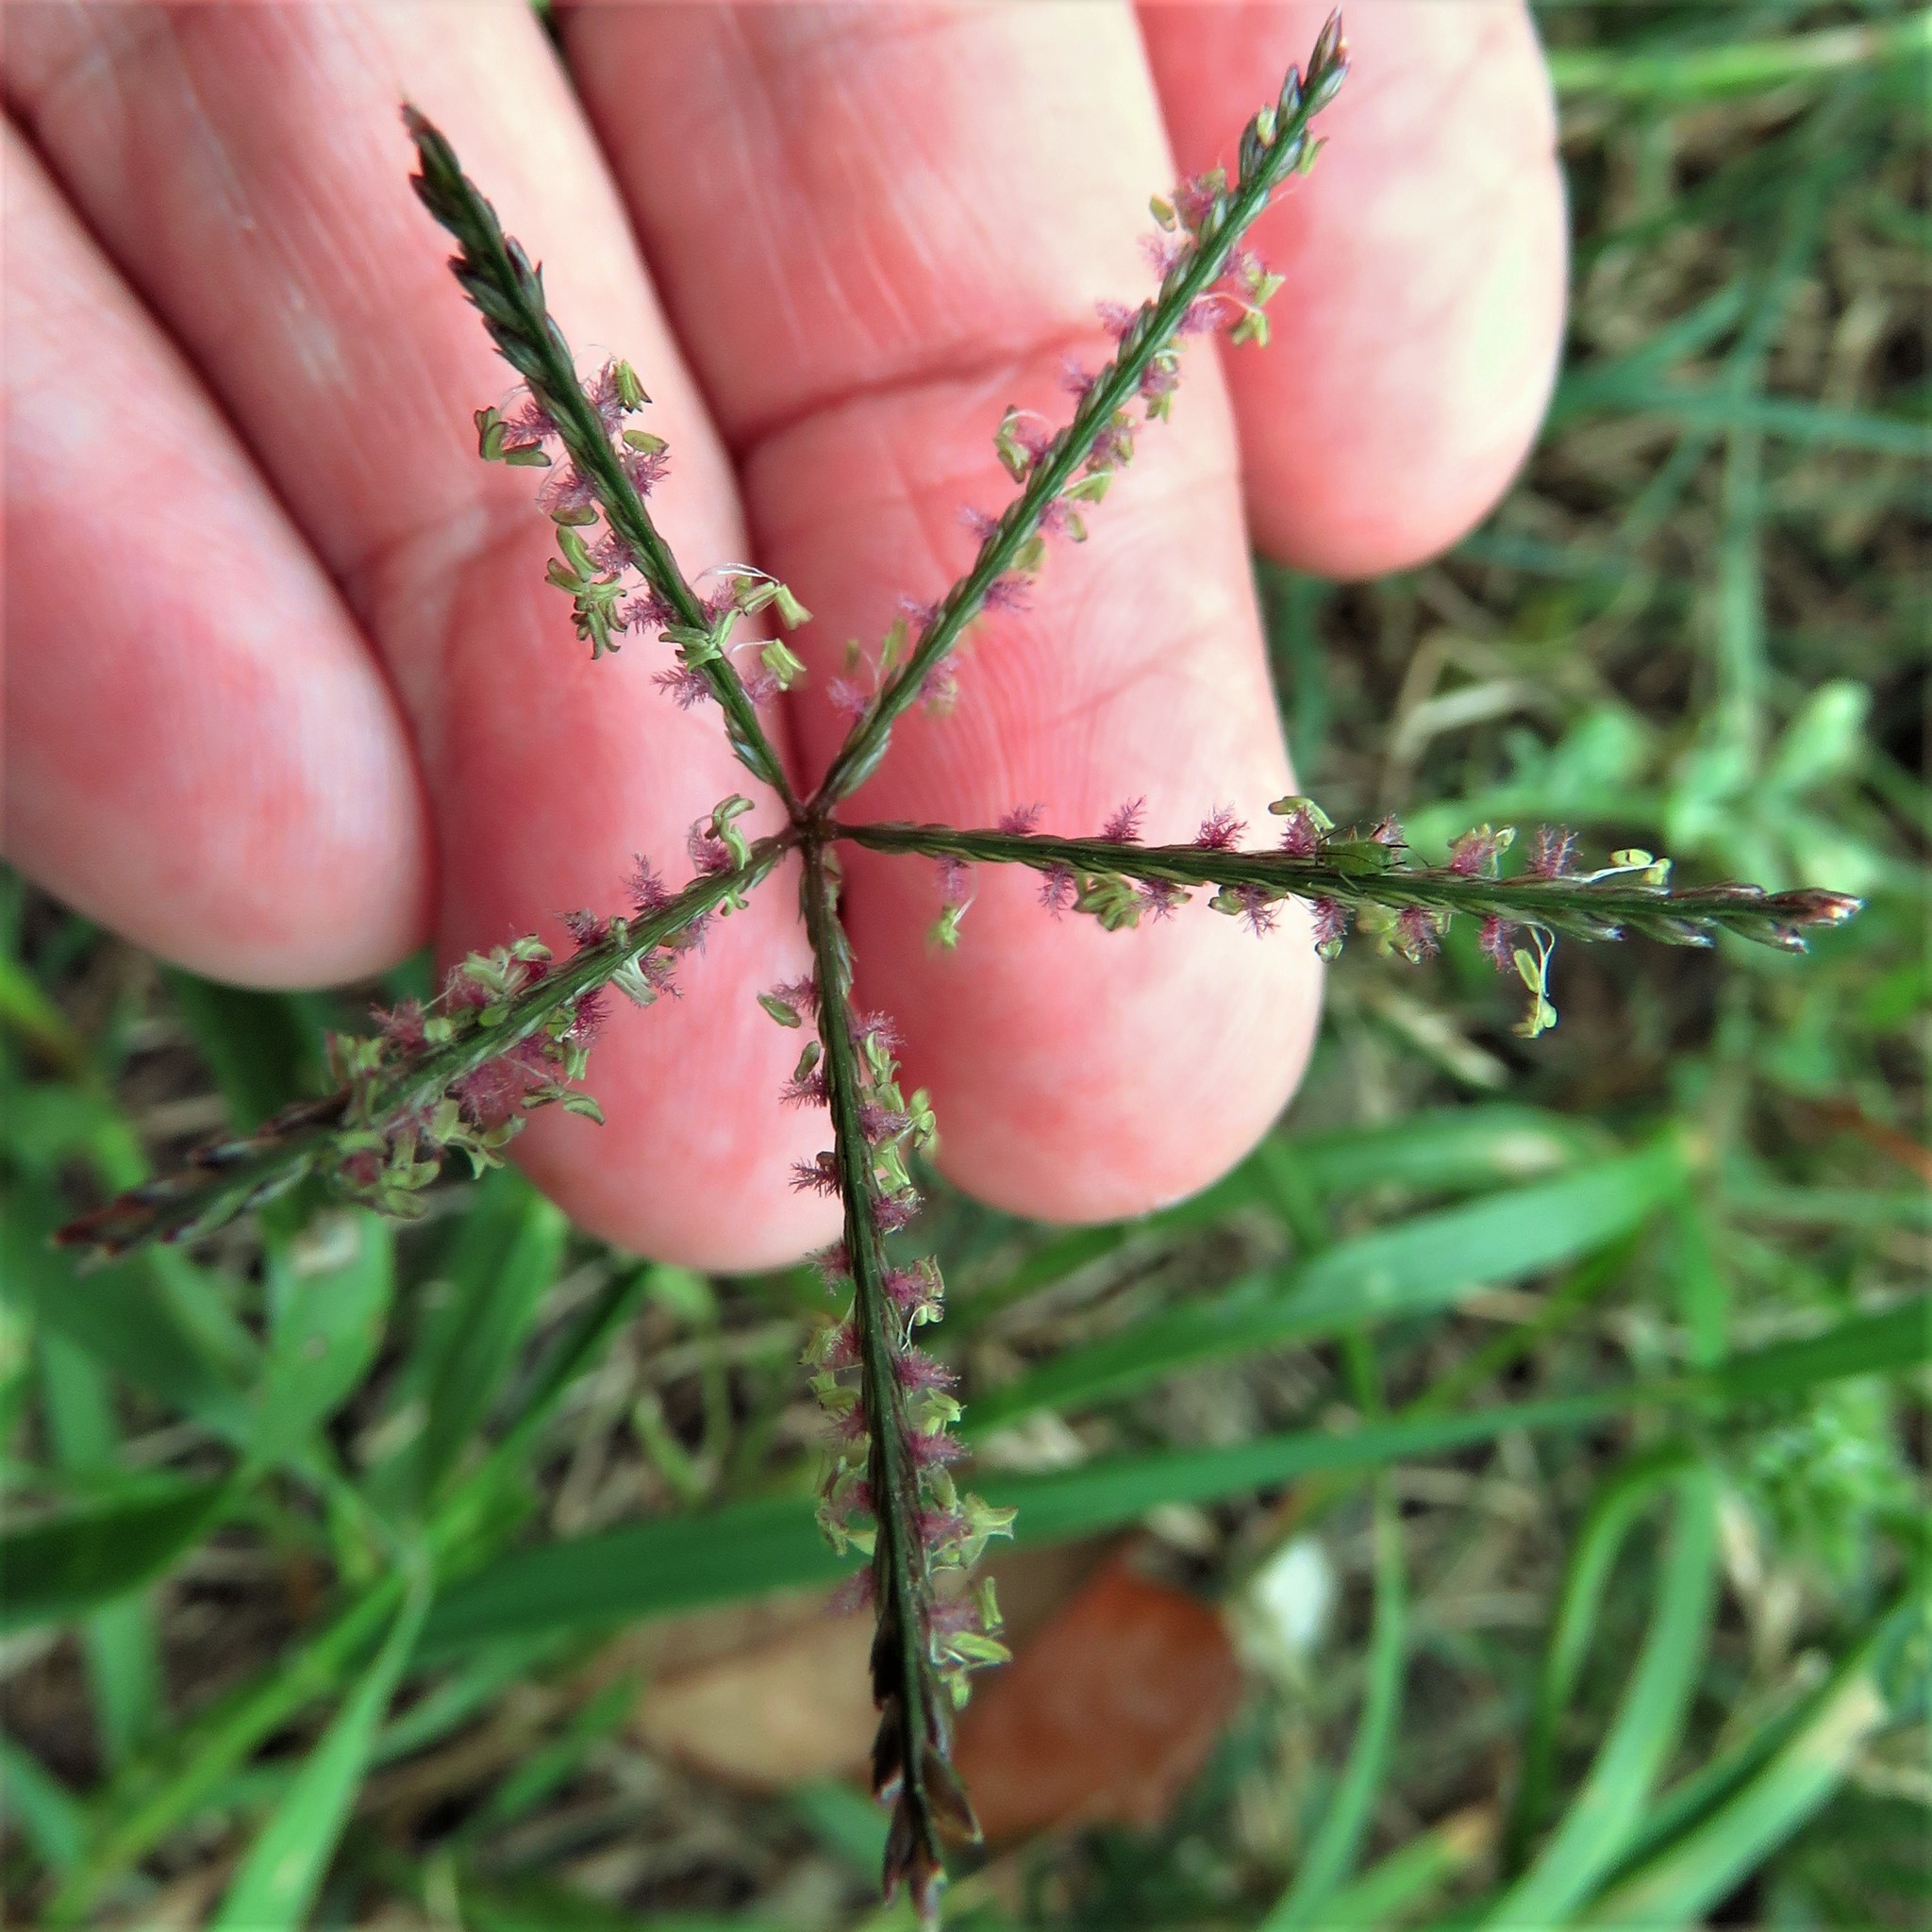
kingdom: Plantae
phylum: Tracheophyta
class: Liliopsida
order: Poales
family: Poaceae
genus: Cynodon
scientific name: Cynodon dactylon
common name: Bermuda grass
